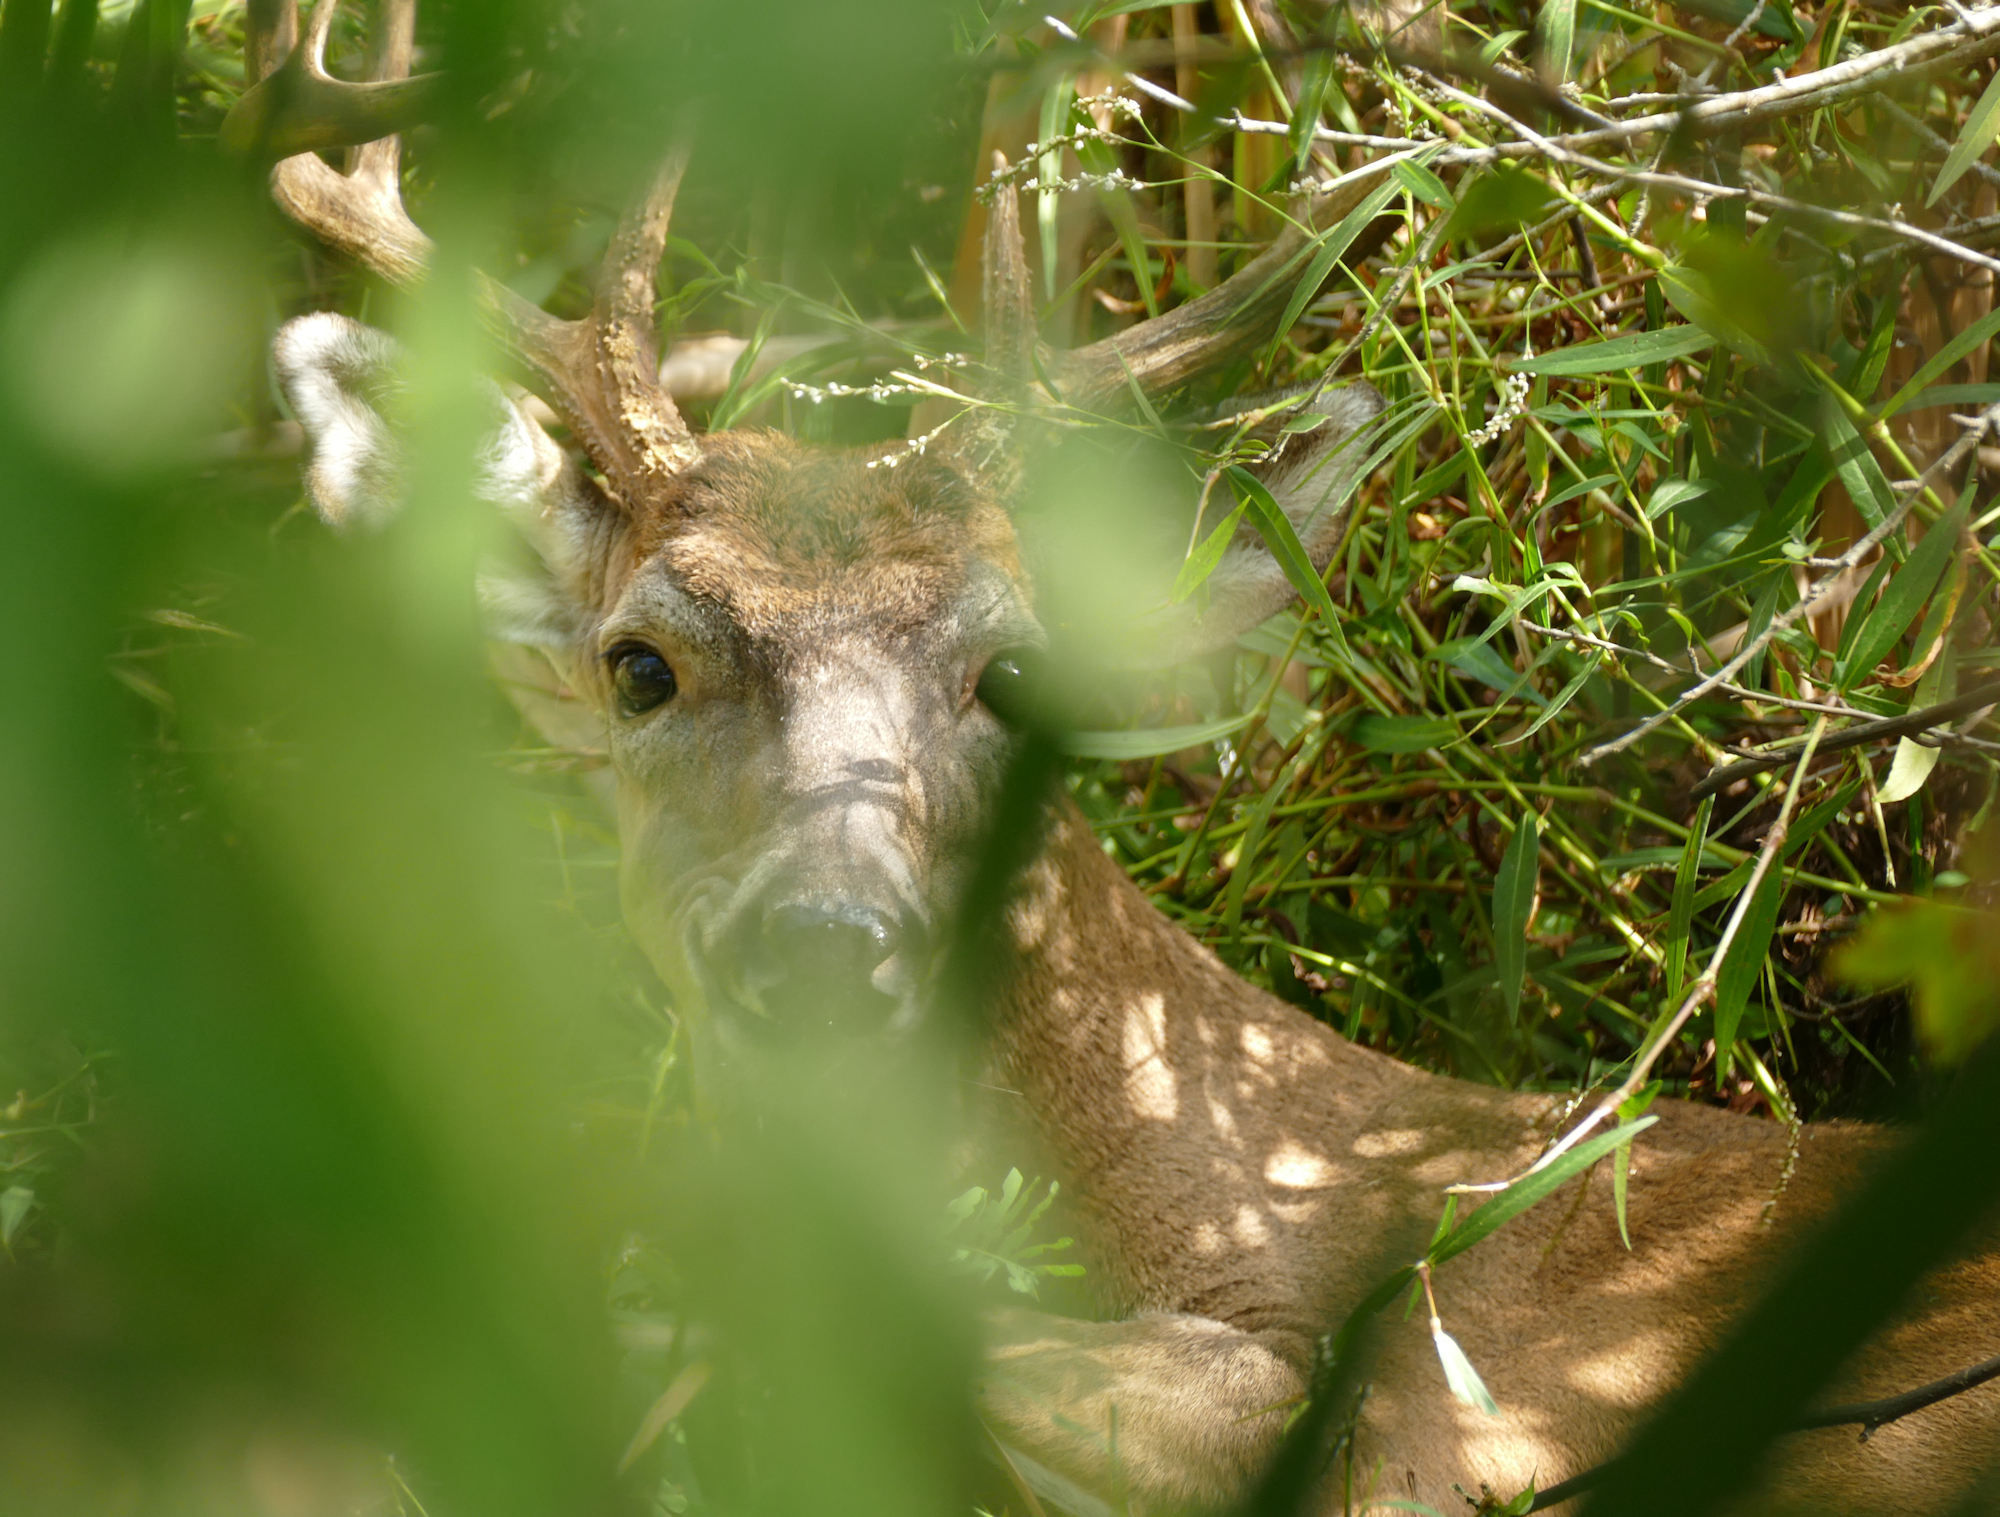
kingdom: Animalia
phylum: Chordata
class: Mammalia
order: Artiodactyla
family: Cervidae
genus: Odocoileus
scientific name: Odocoileus virginianus
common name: White-tailed deer
